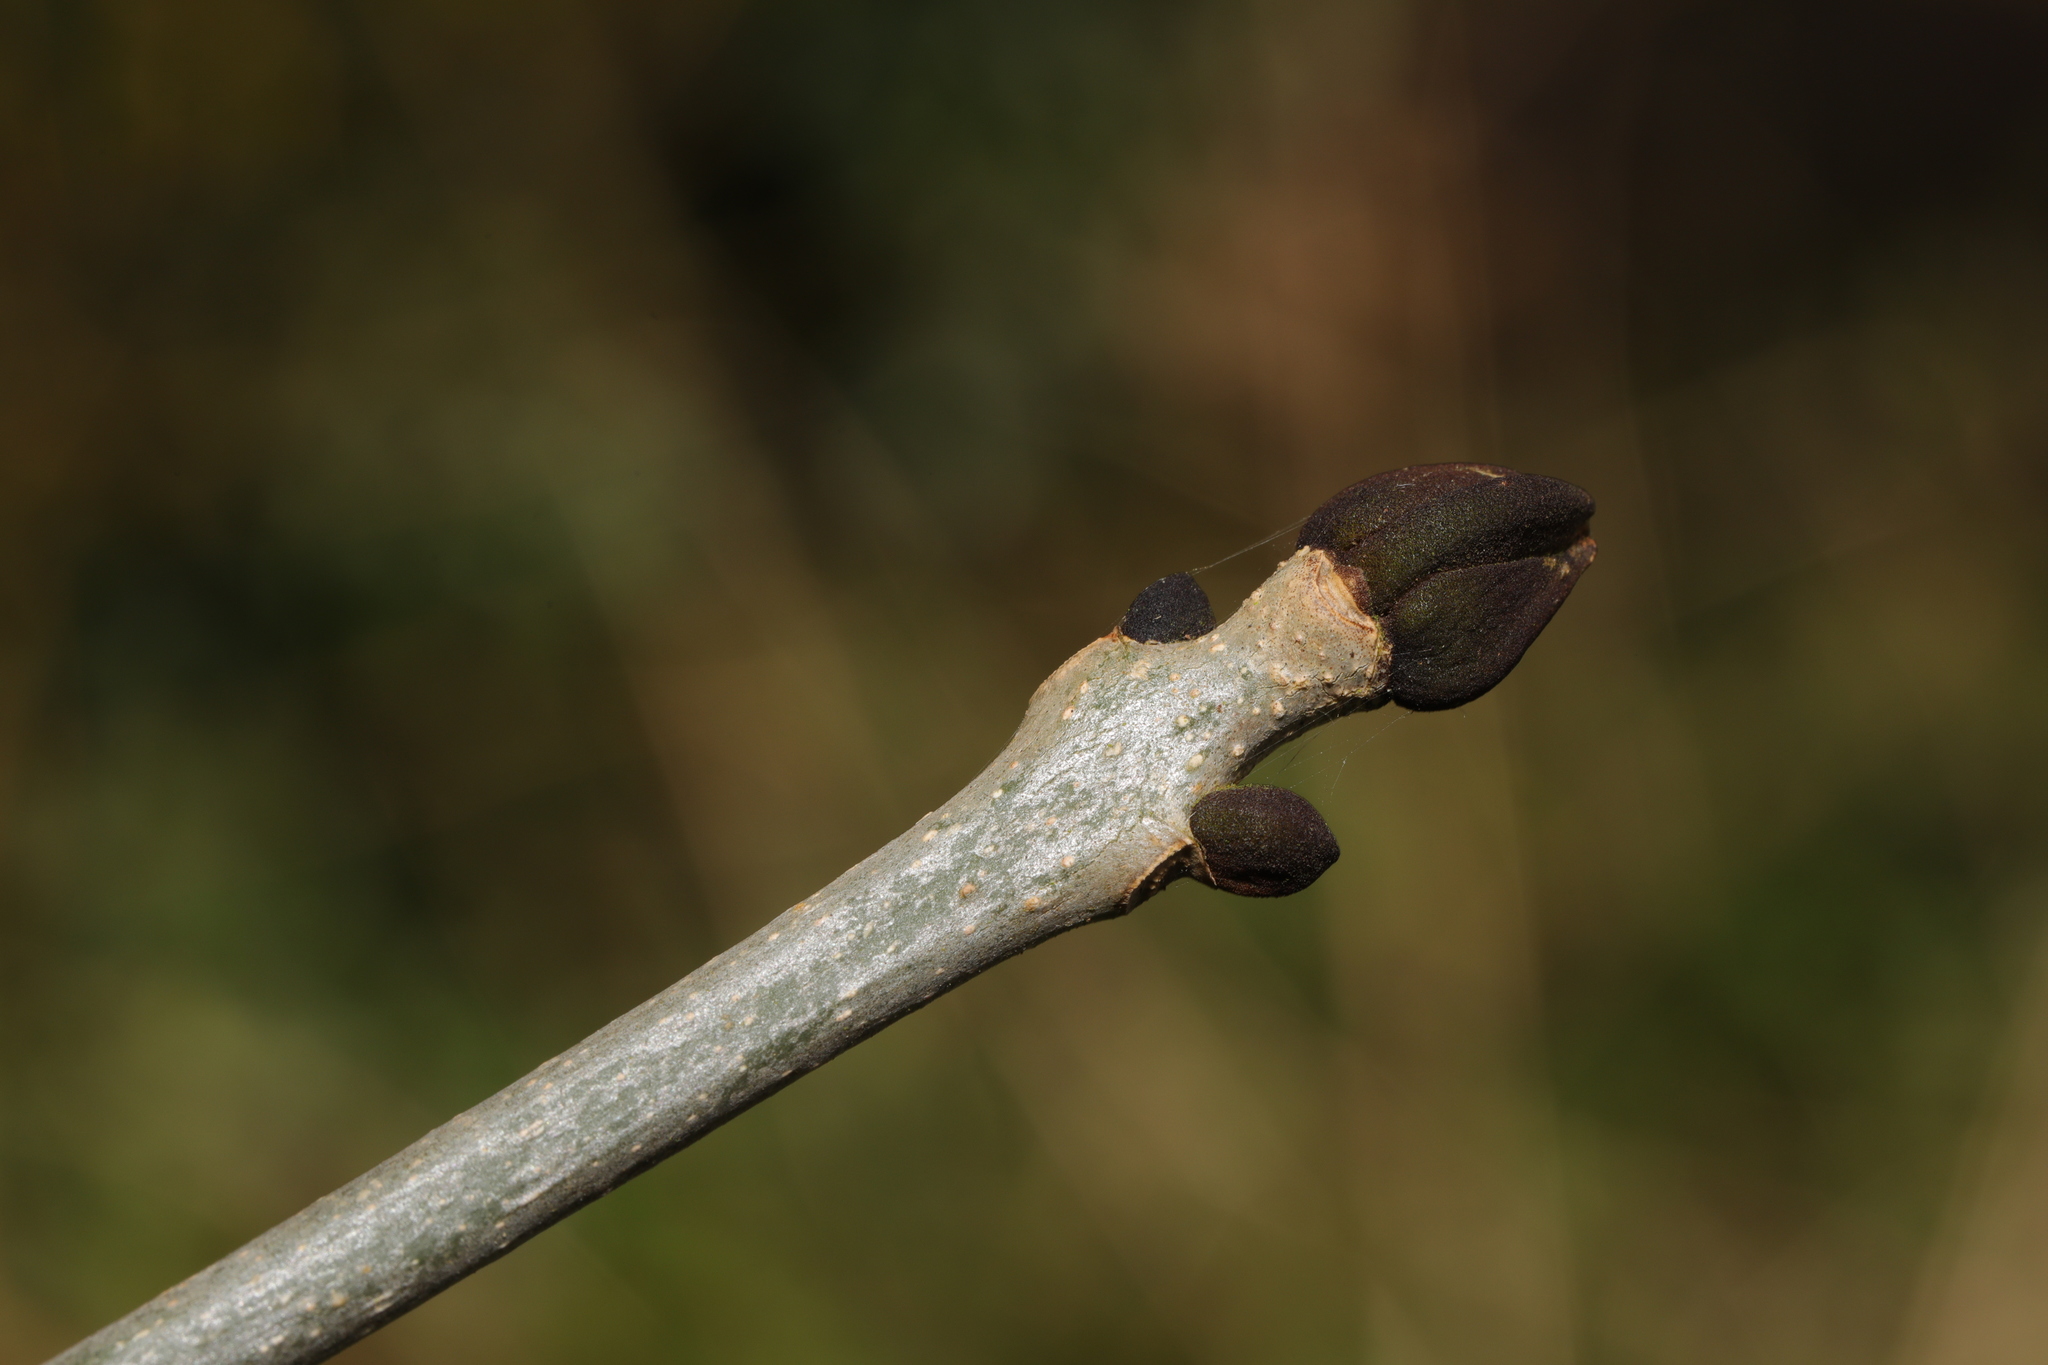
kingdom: Plantae
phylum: Tracheophyta
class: Magnoliopsida
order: Lamiales
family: Oleaceae
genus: Fraxinus
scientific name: Fraxinus excelsior
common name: European ash
